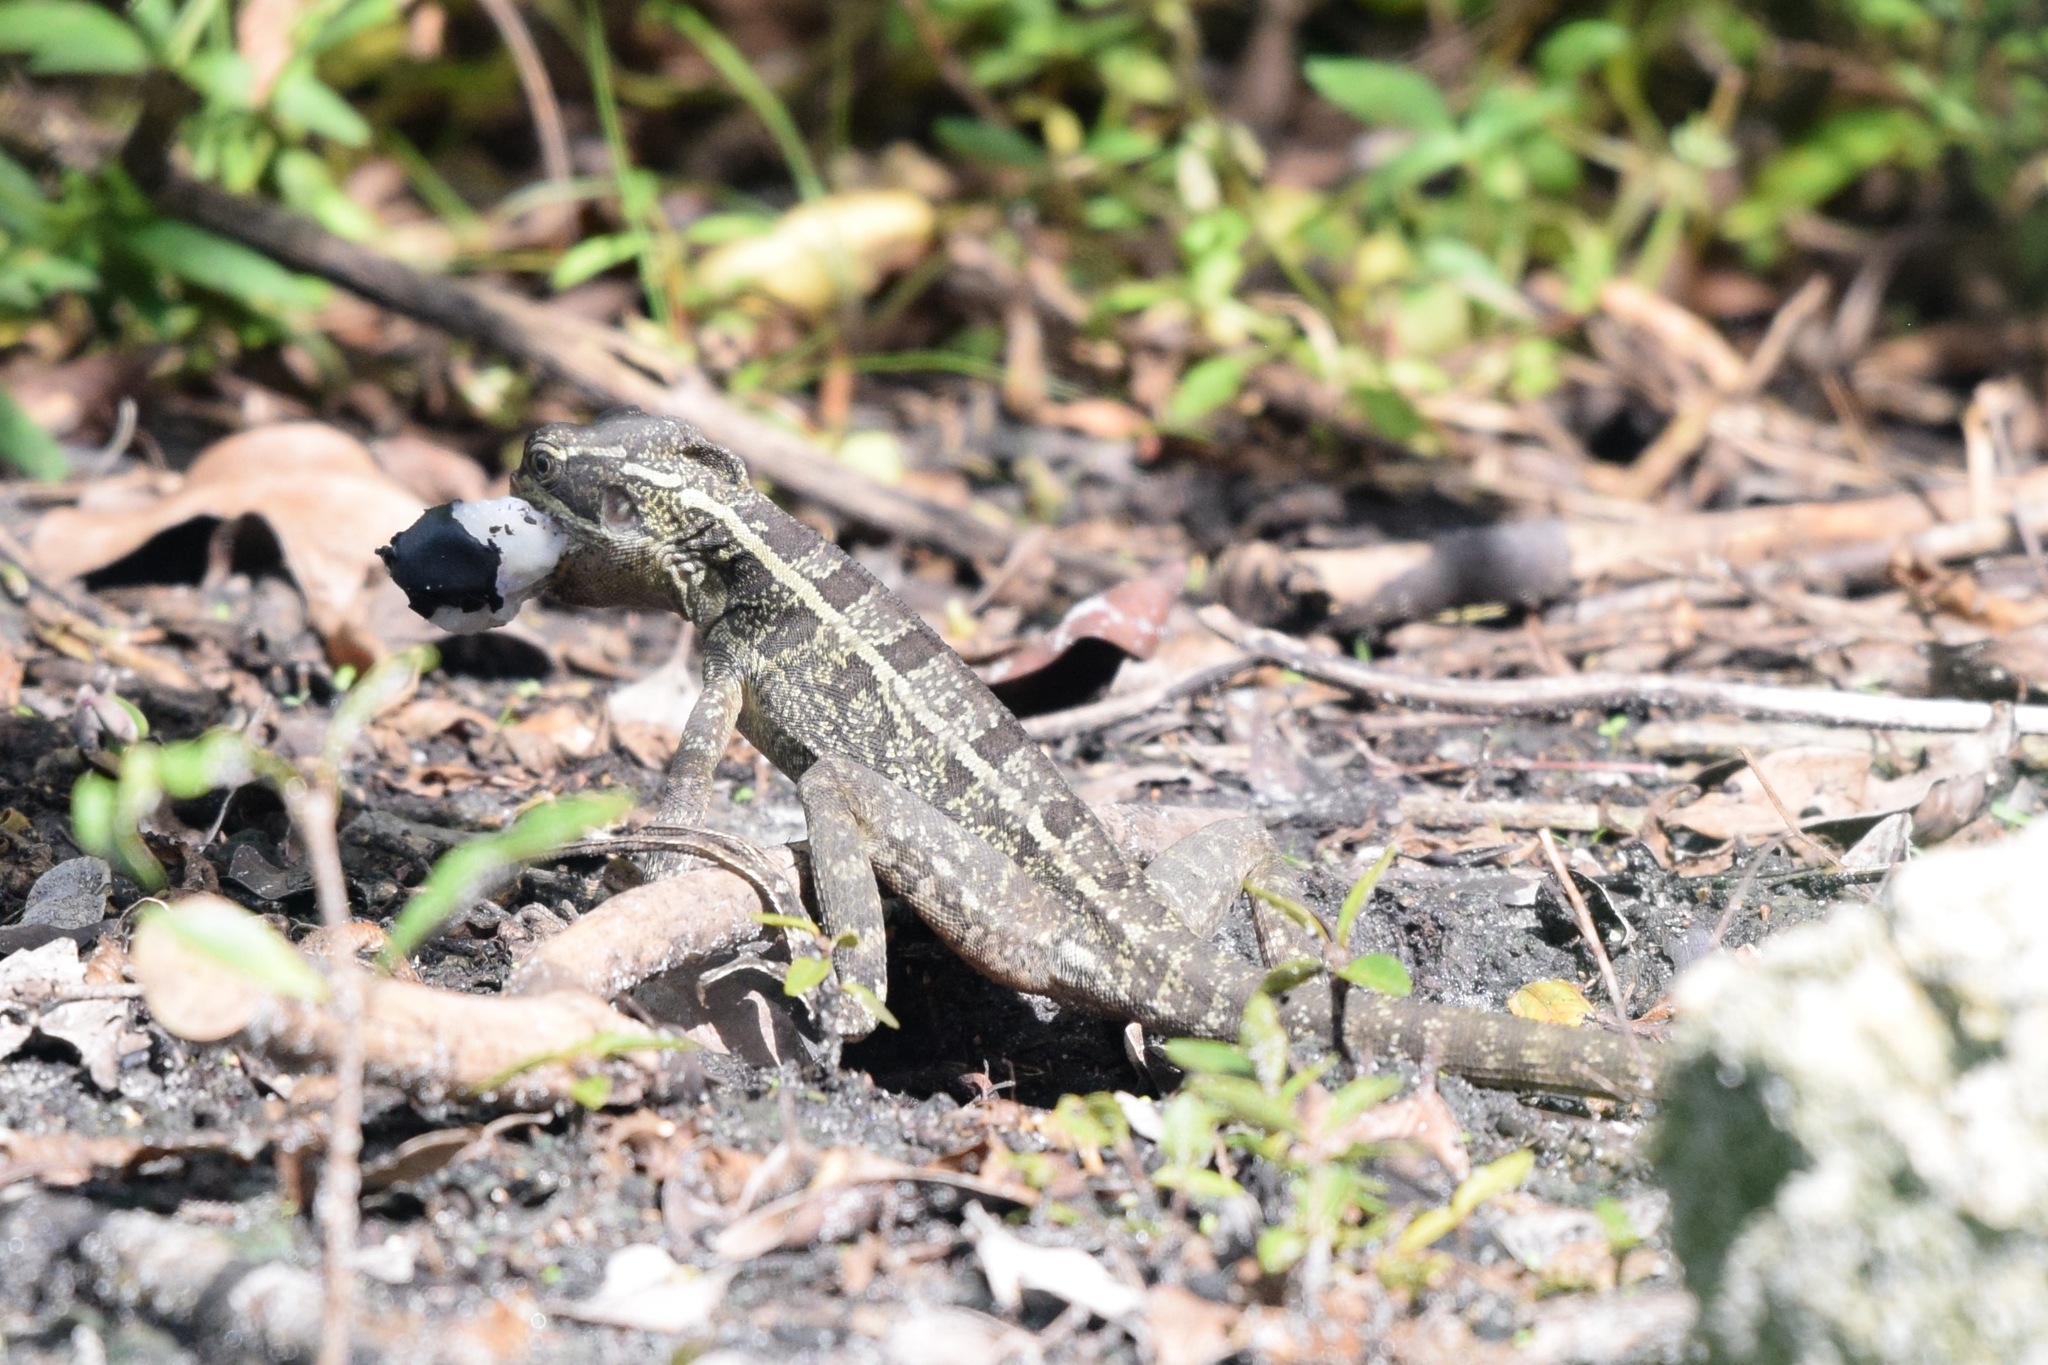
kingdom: Animalia
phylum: Chordata
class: Squamata
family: Corytophanidae
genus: Basiliscus
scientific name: Basiliscus vittatus
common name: Brown basilisk
